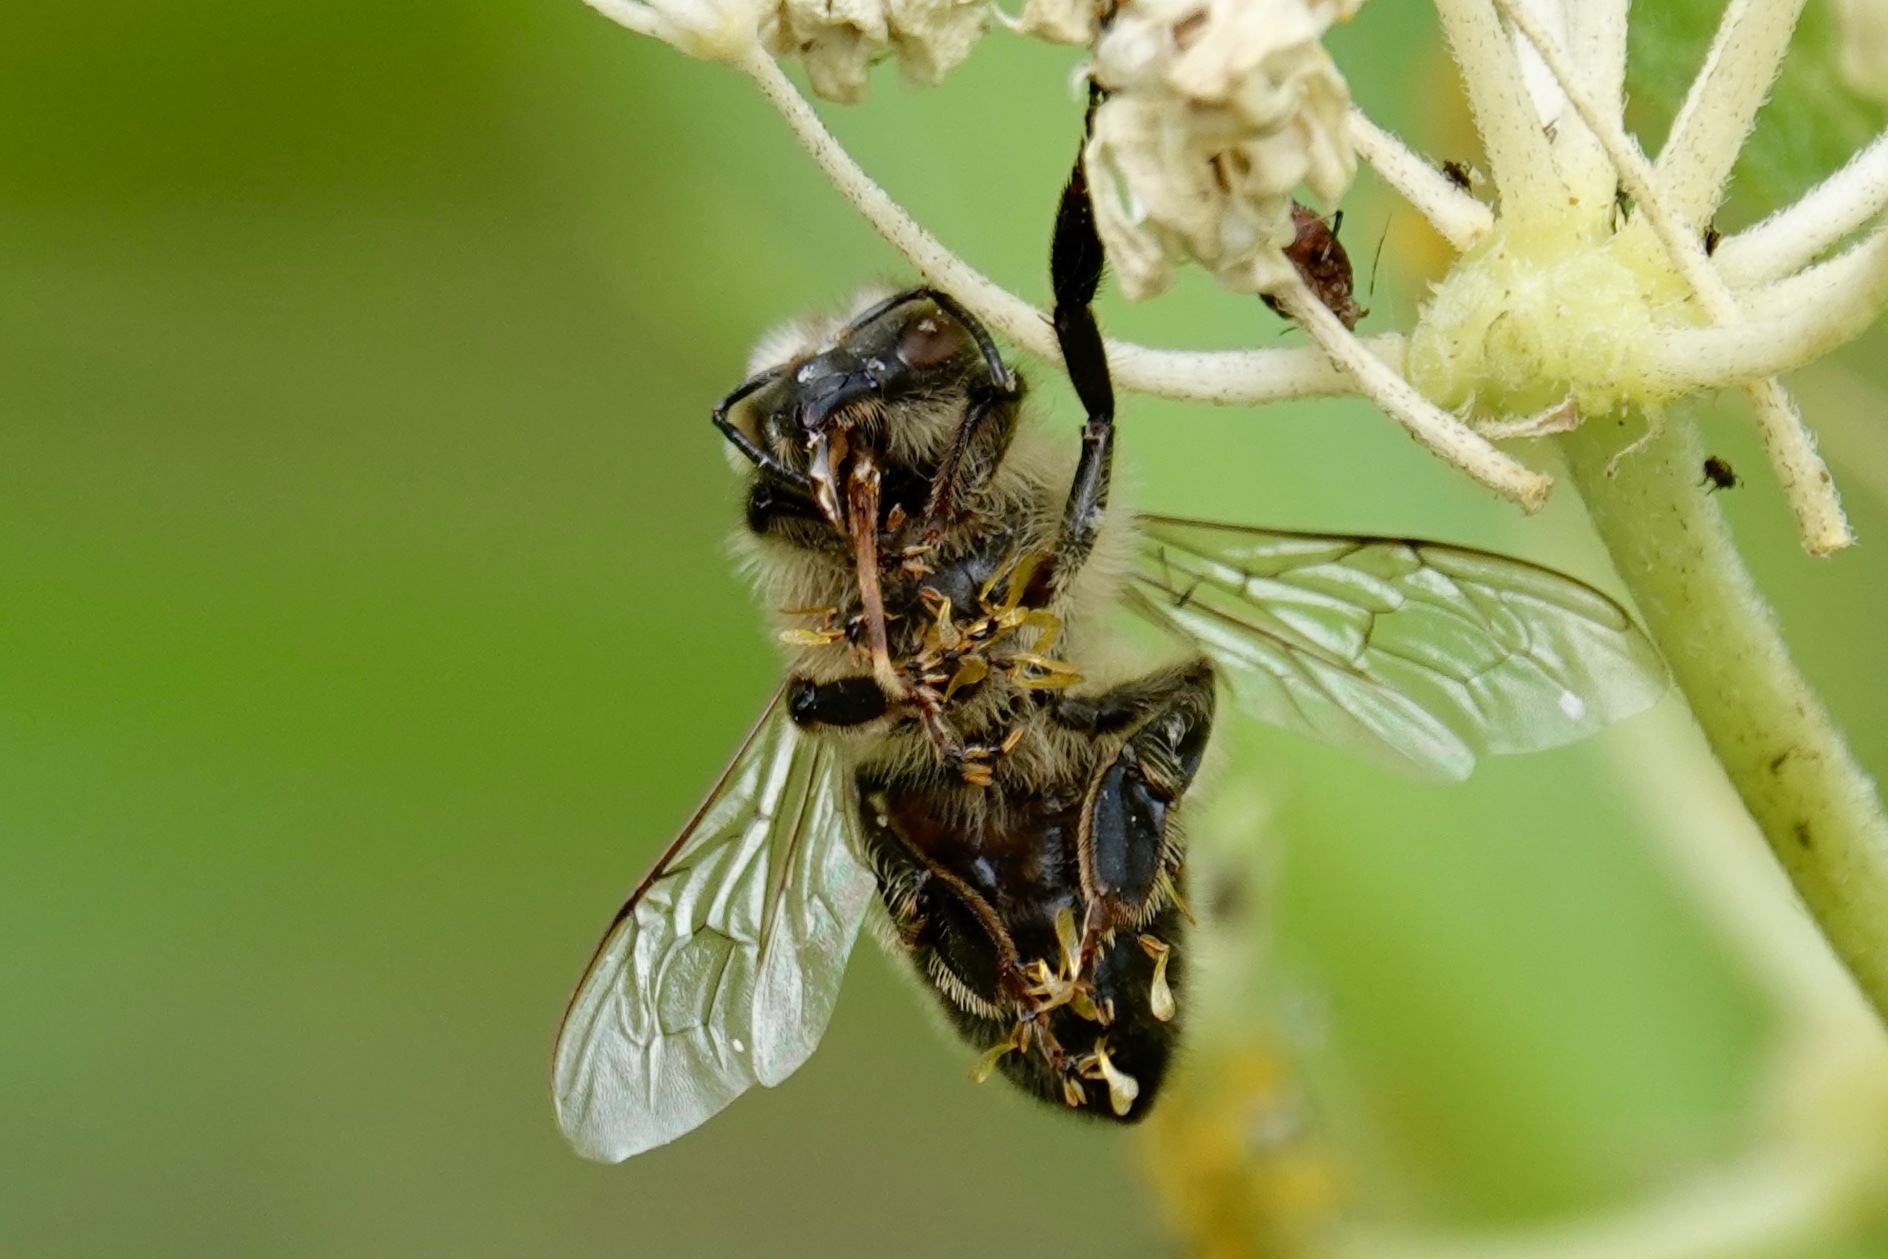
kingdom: Animalia
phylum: Arthropoda
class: Insecta
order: Hymenoptera
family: Apidae
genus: Apis
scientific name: Apis mellifera
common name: Honey bee
